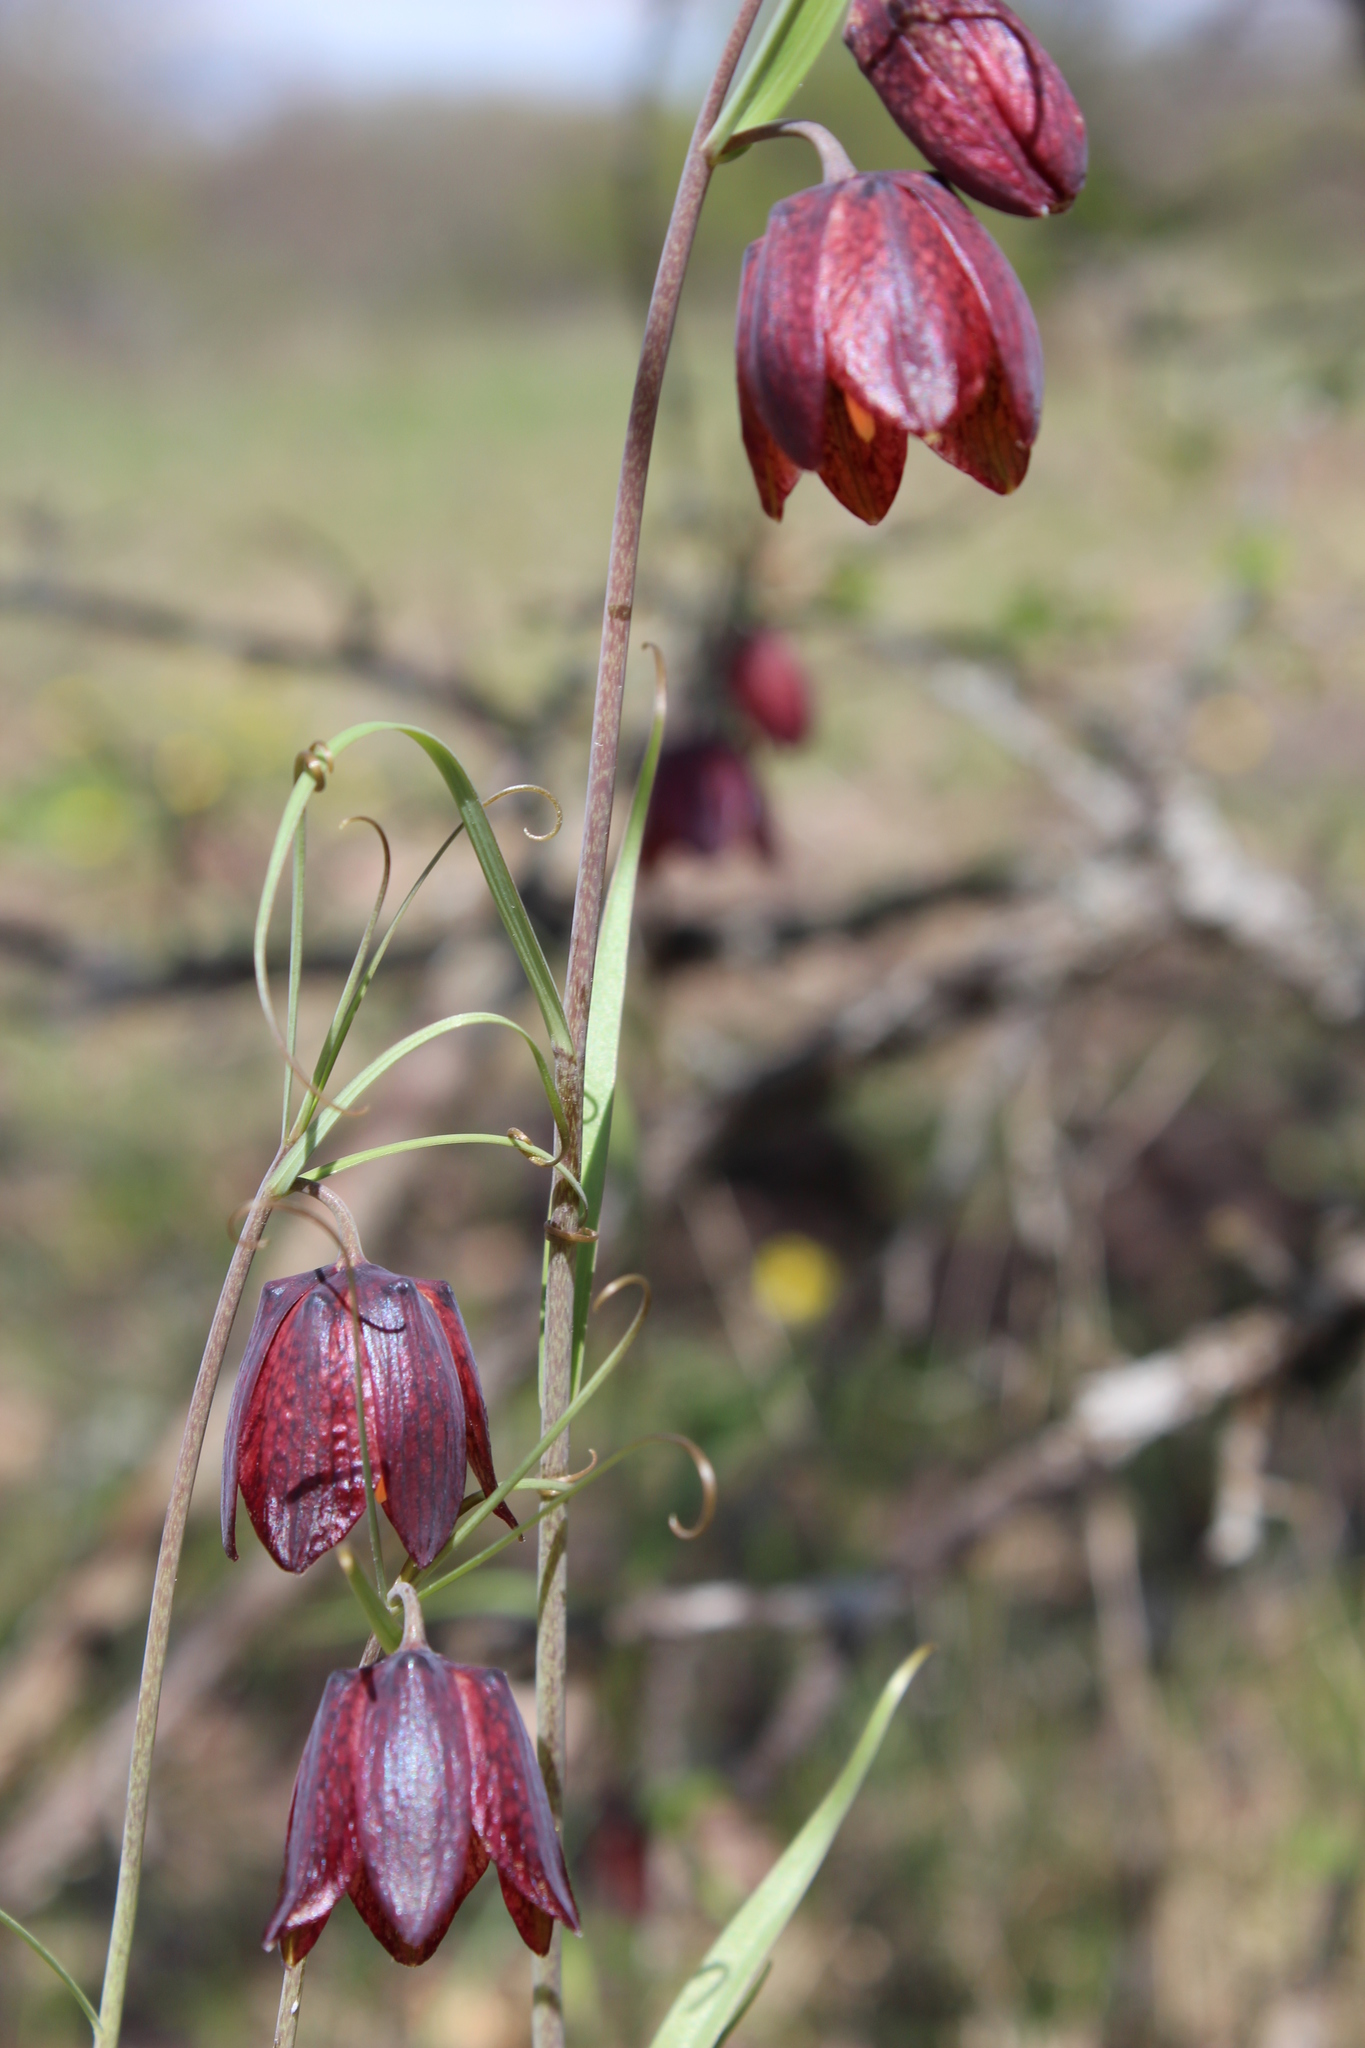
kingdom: Plantae
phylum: Tracheophyta
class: Liliopsida
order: Liliales
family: Liliaceae
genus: Fritillaria
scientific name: Fritillaria ruthenica
